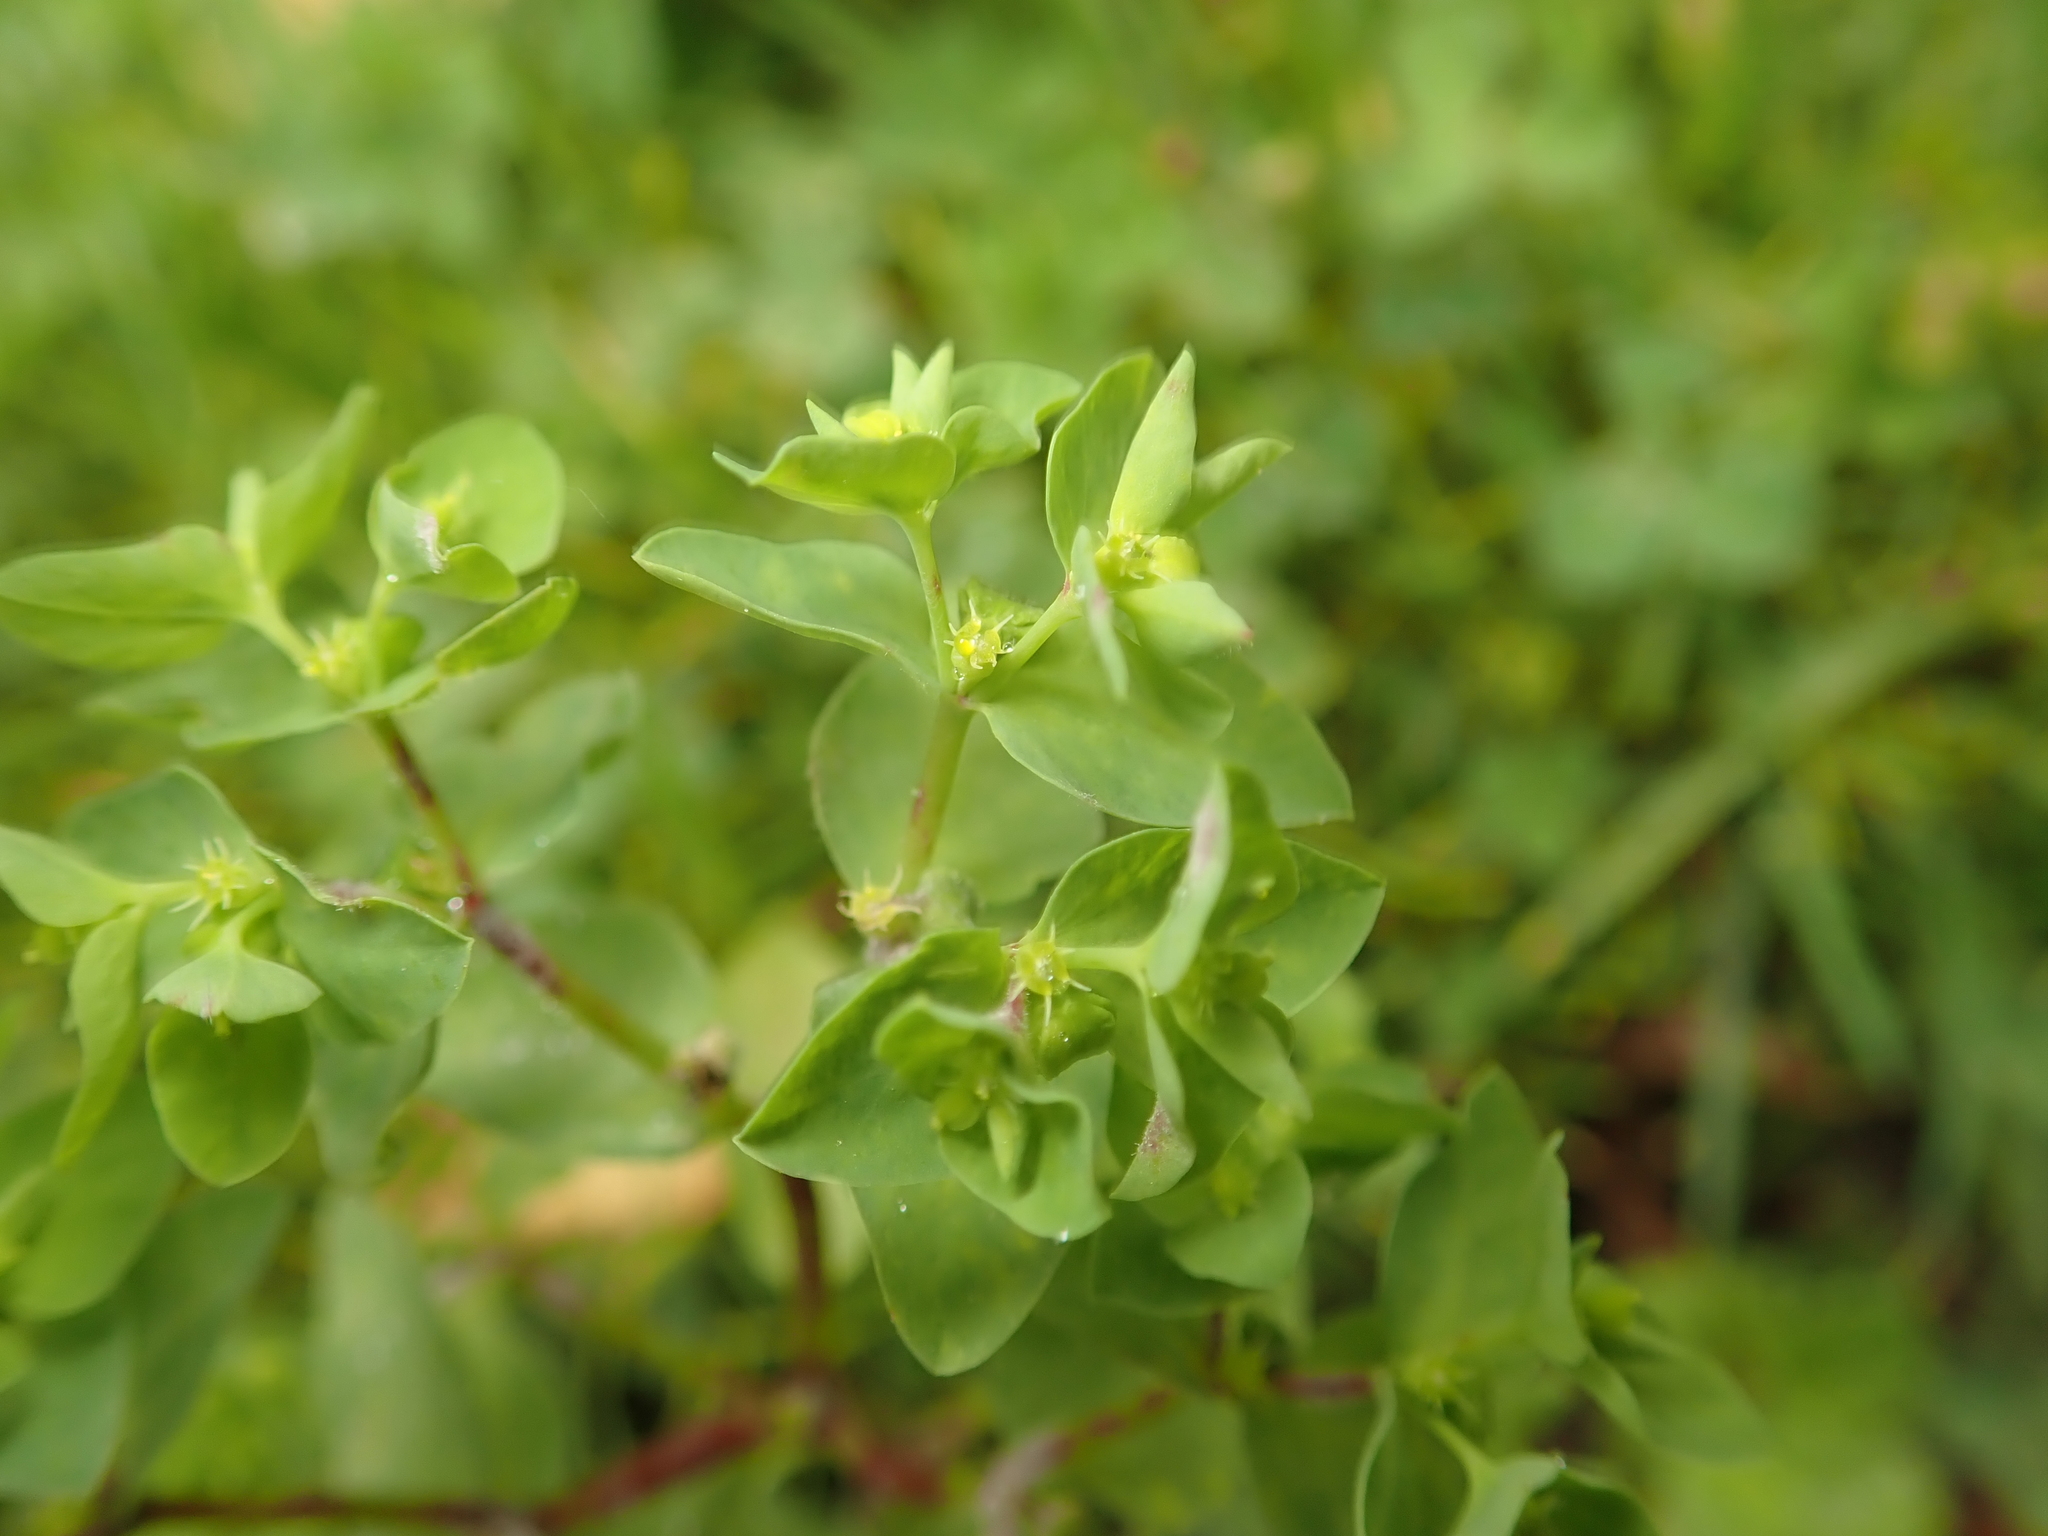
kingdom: Plantae
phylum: Tracheophyta
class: Magnoliopsida
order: Malpighiales
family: Euphorbiaceae
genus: Euphorbia
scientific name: Euphorbia peplus
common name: Petty spurge
